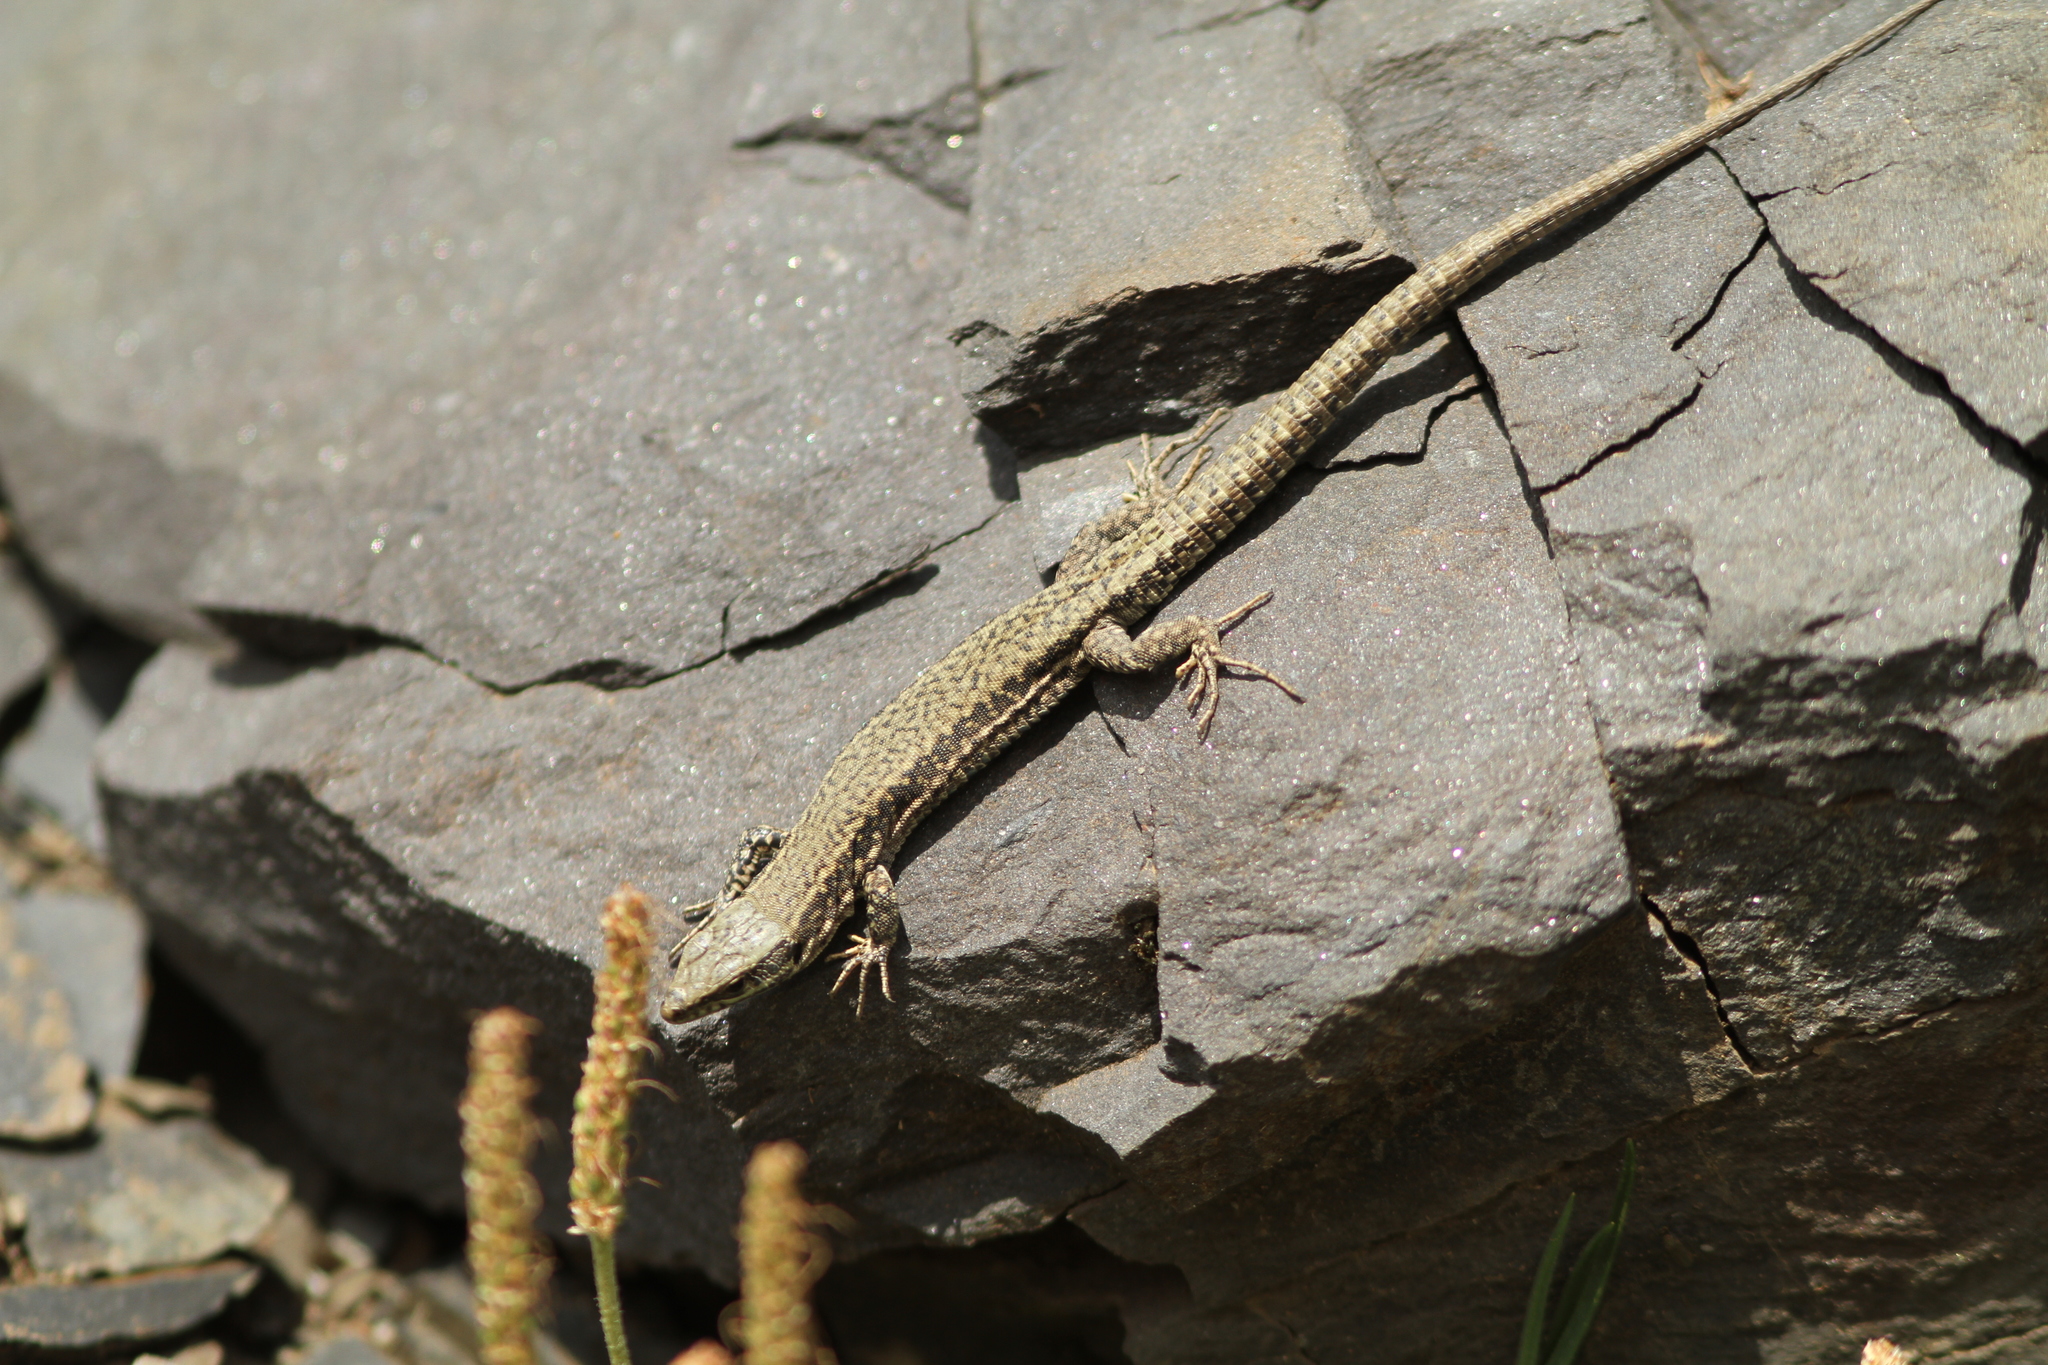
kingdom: Animalia
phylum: Chordata
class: Squamata
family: Lacertidae
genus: Podarcis
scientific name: Podarcis muralis
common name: Common wall lizard
